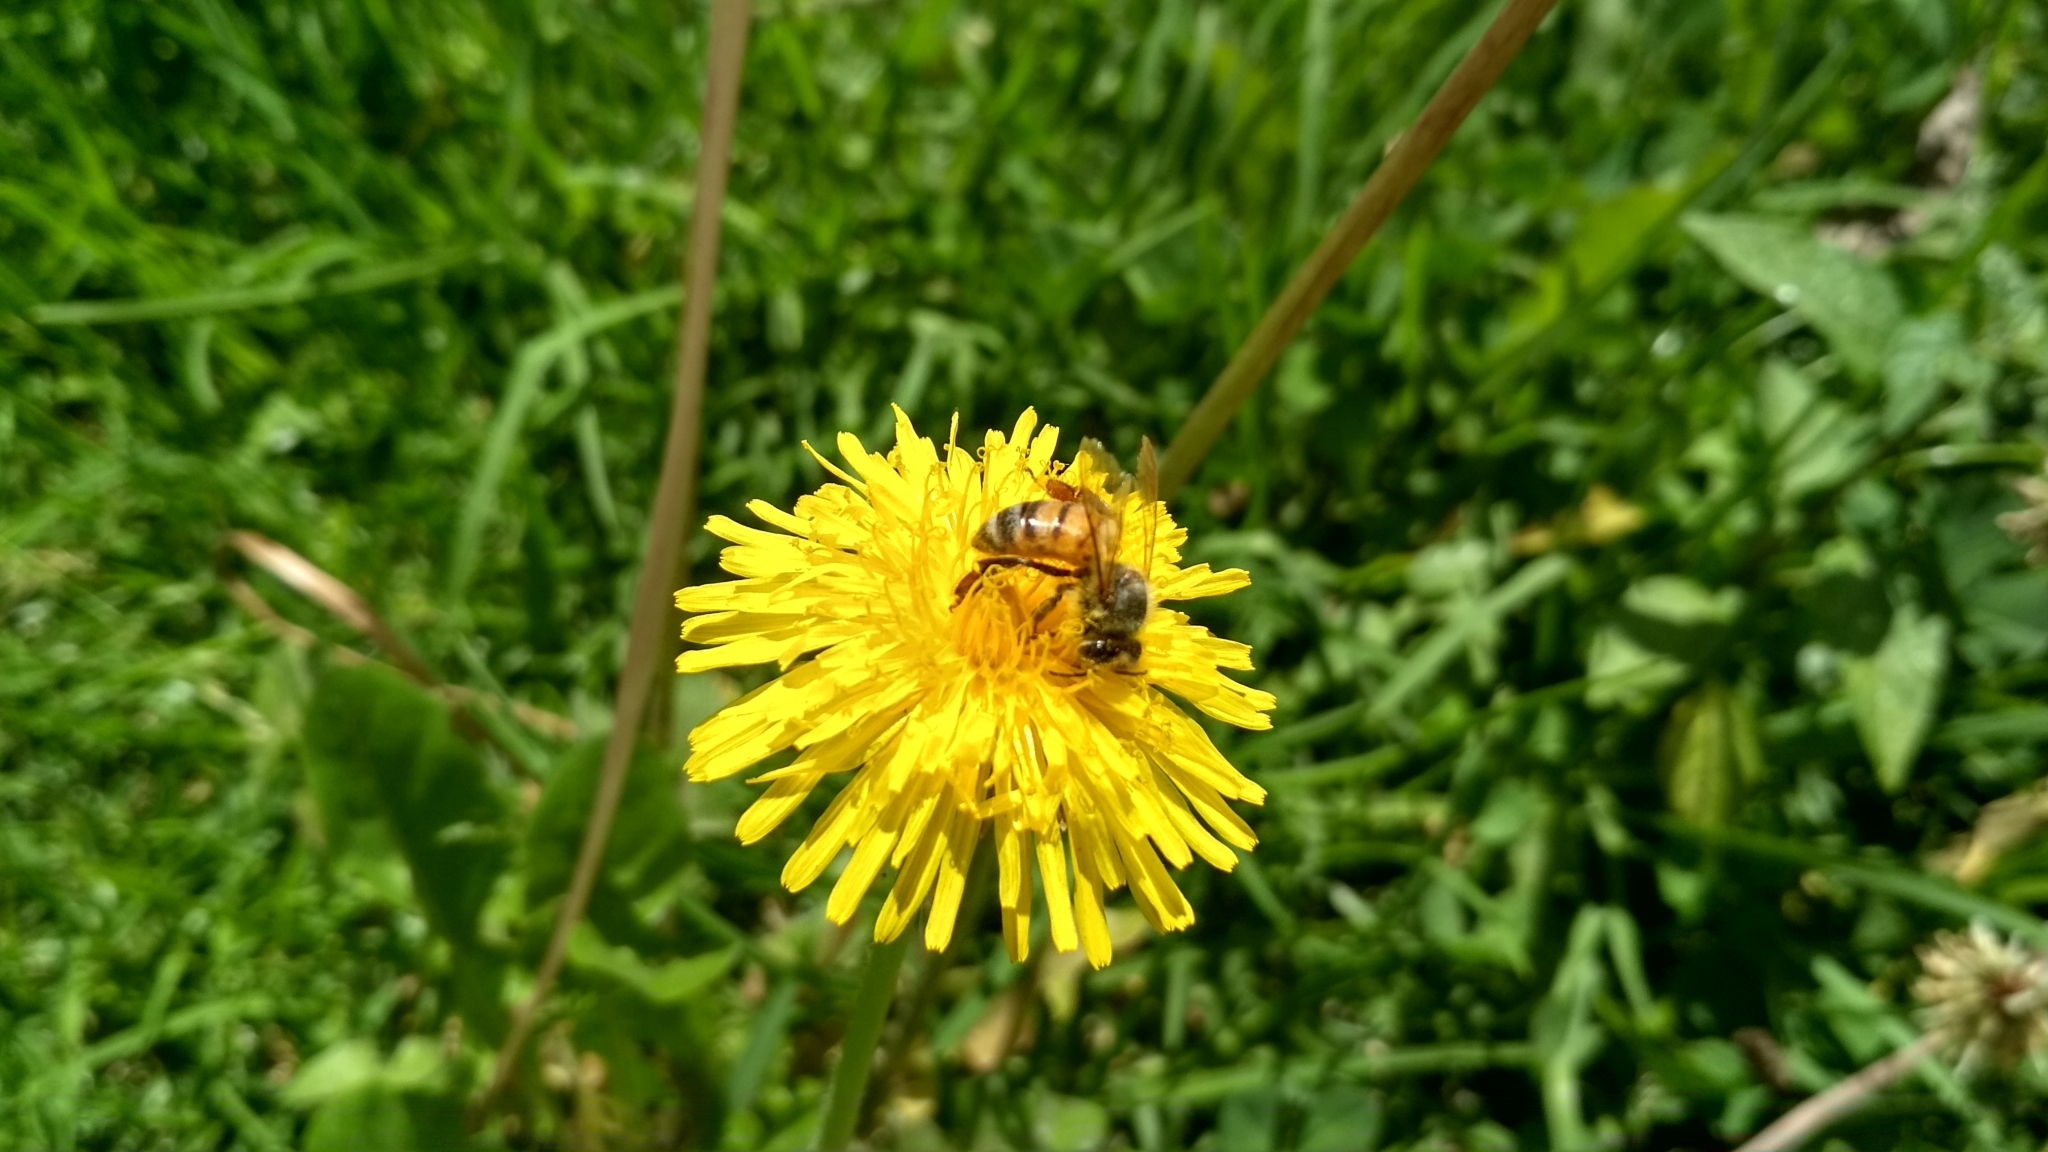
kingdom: Animalia
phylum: Arthropoda
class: Insecta
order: Hymenoptera
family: Apidae
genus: Apis
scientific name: Apis mellifera
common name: Honey bee
